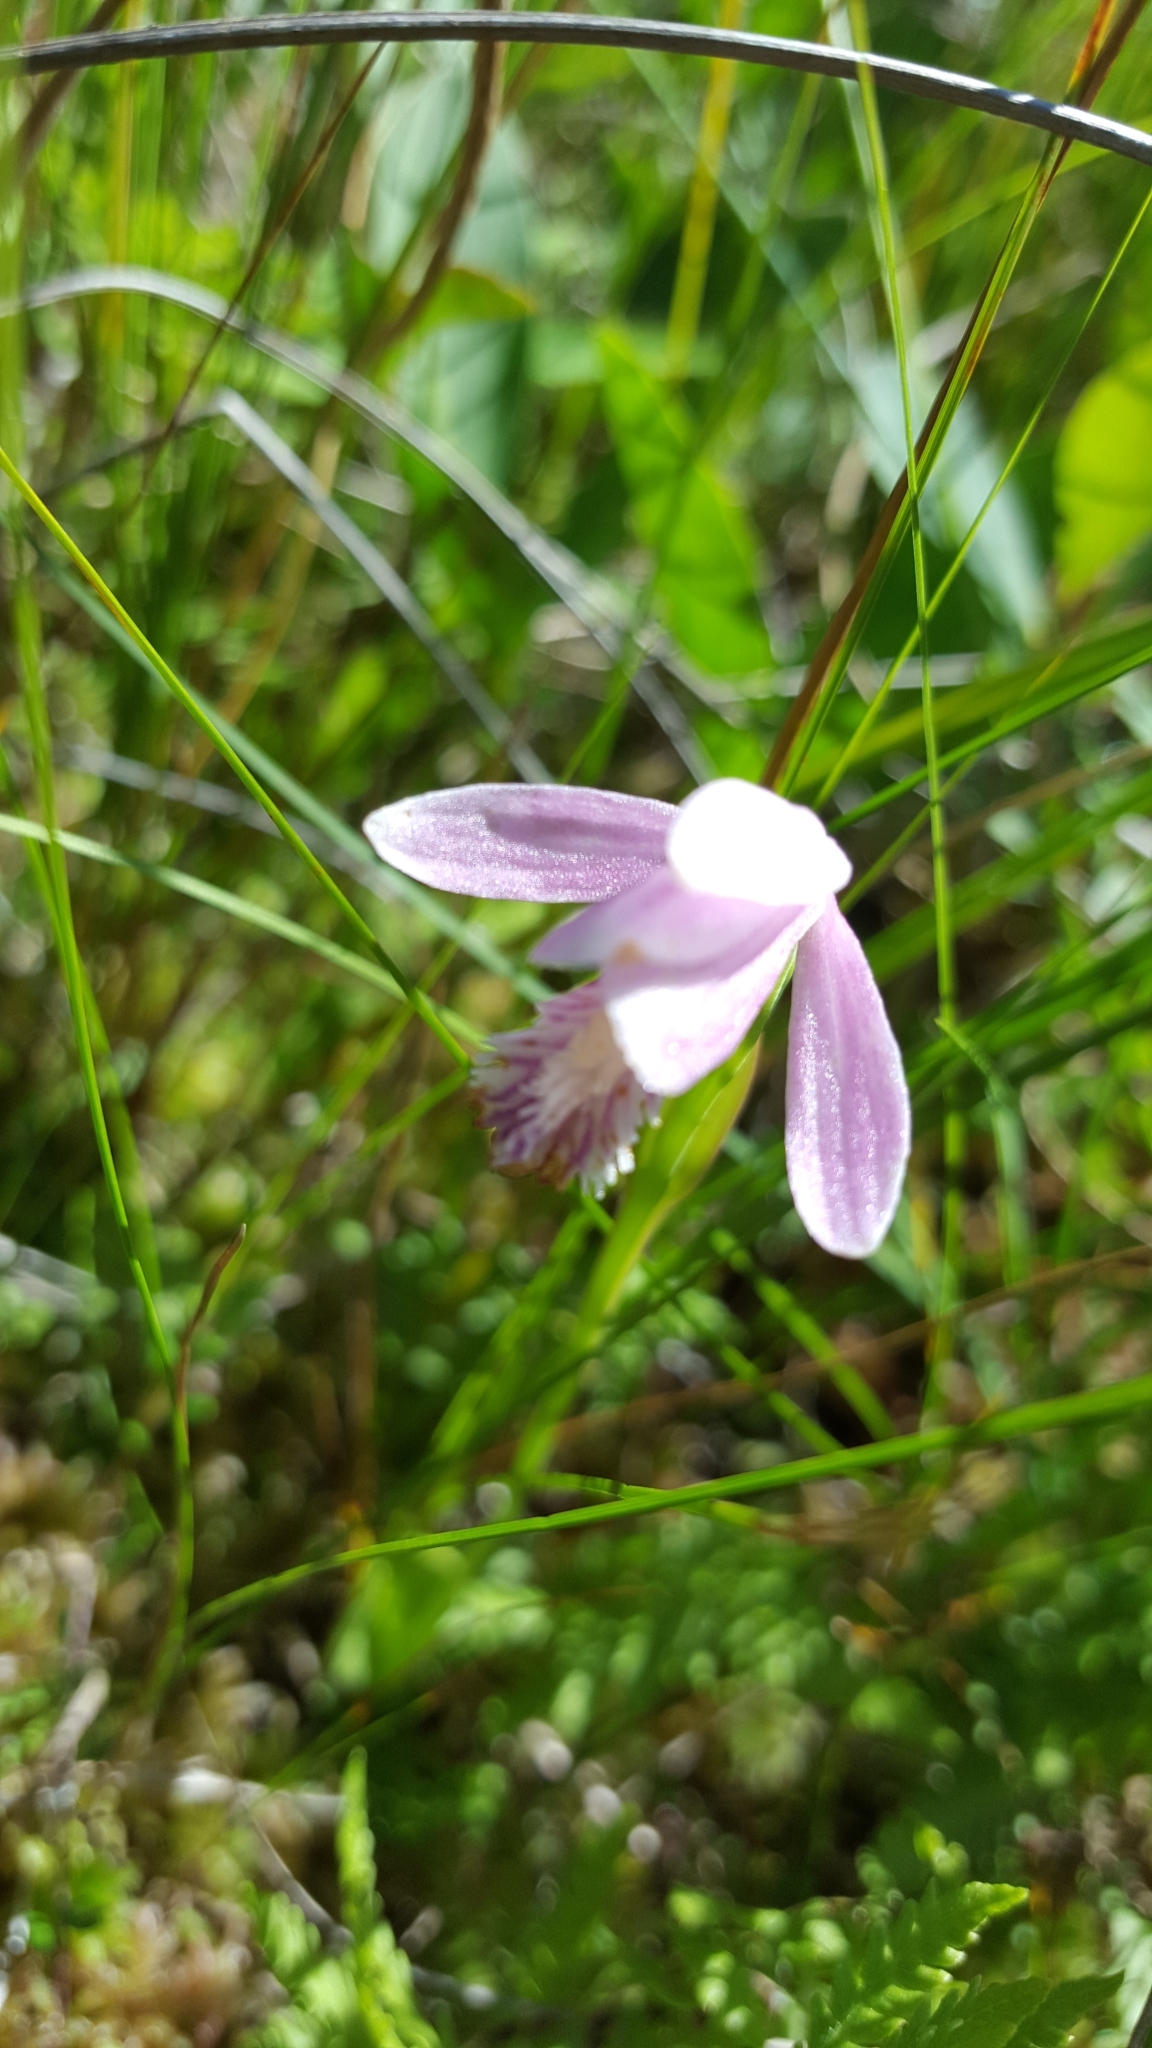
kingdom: Plantae
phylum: Tracheophyta
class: Liliopsida
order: Asparagales
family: Orchidaceae
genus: Pogonia
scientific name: Pogonia ophioglossoides
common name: Rose pogonia
